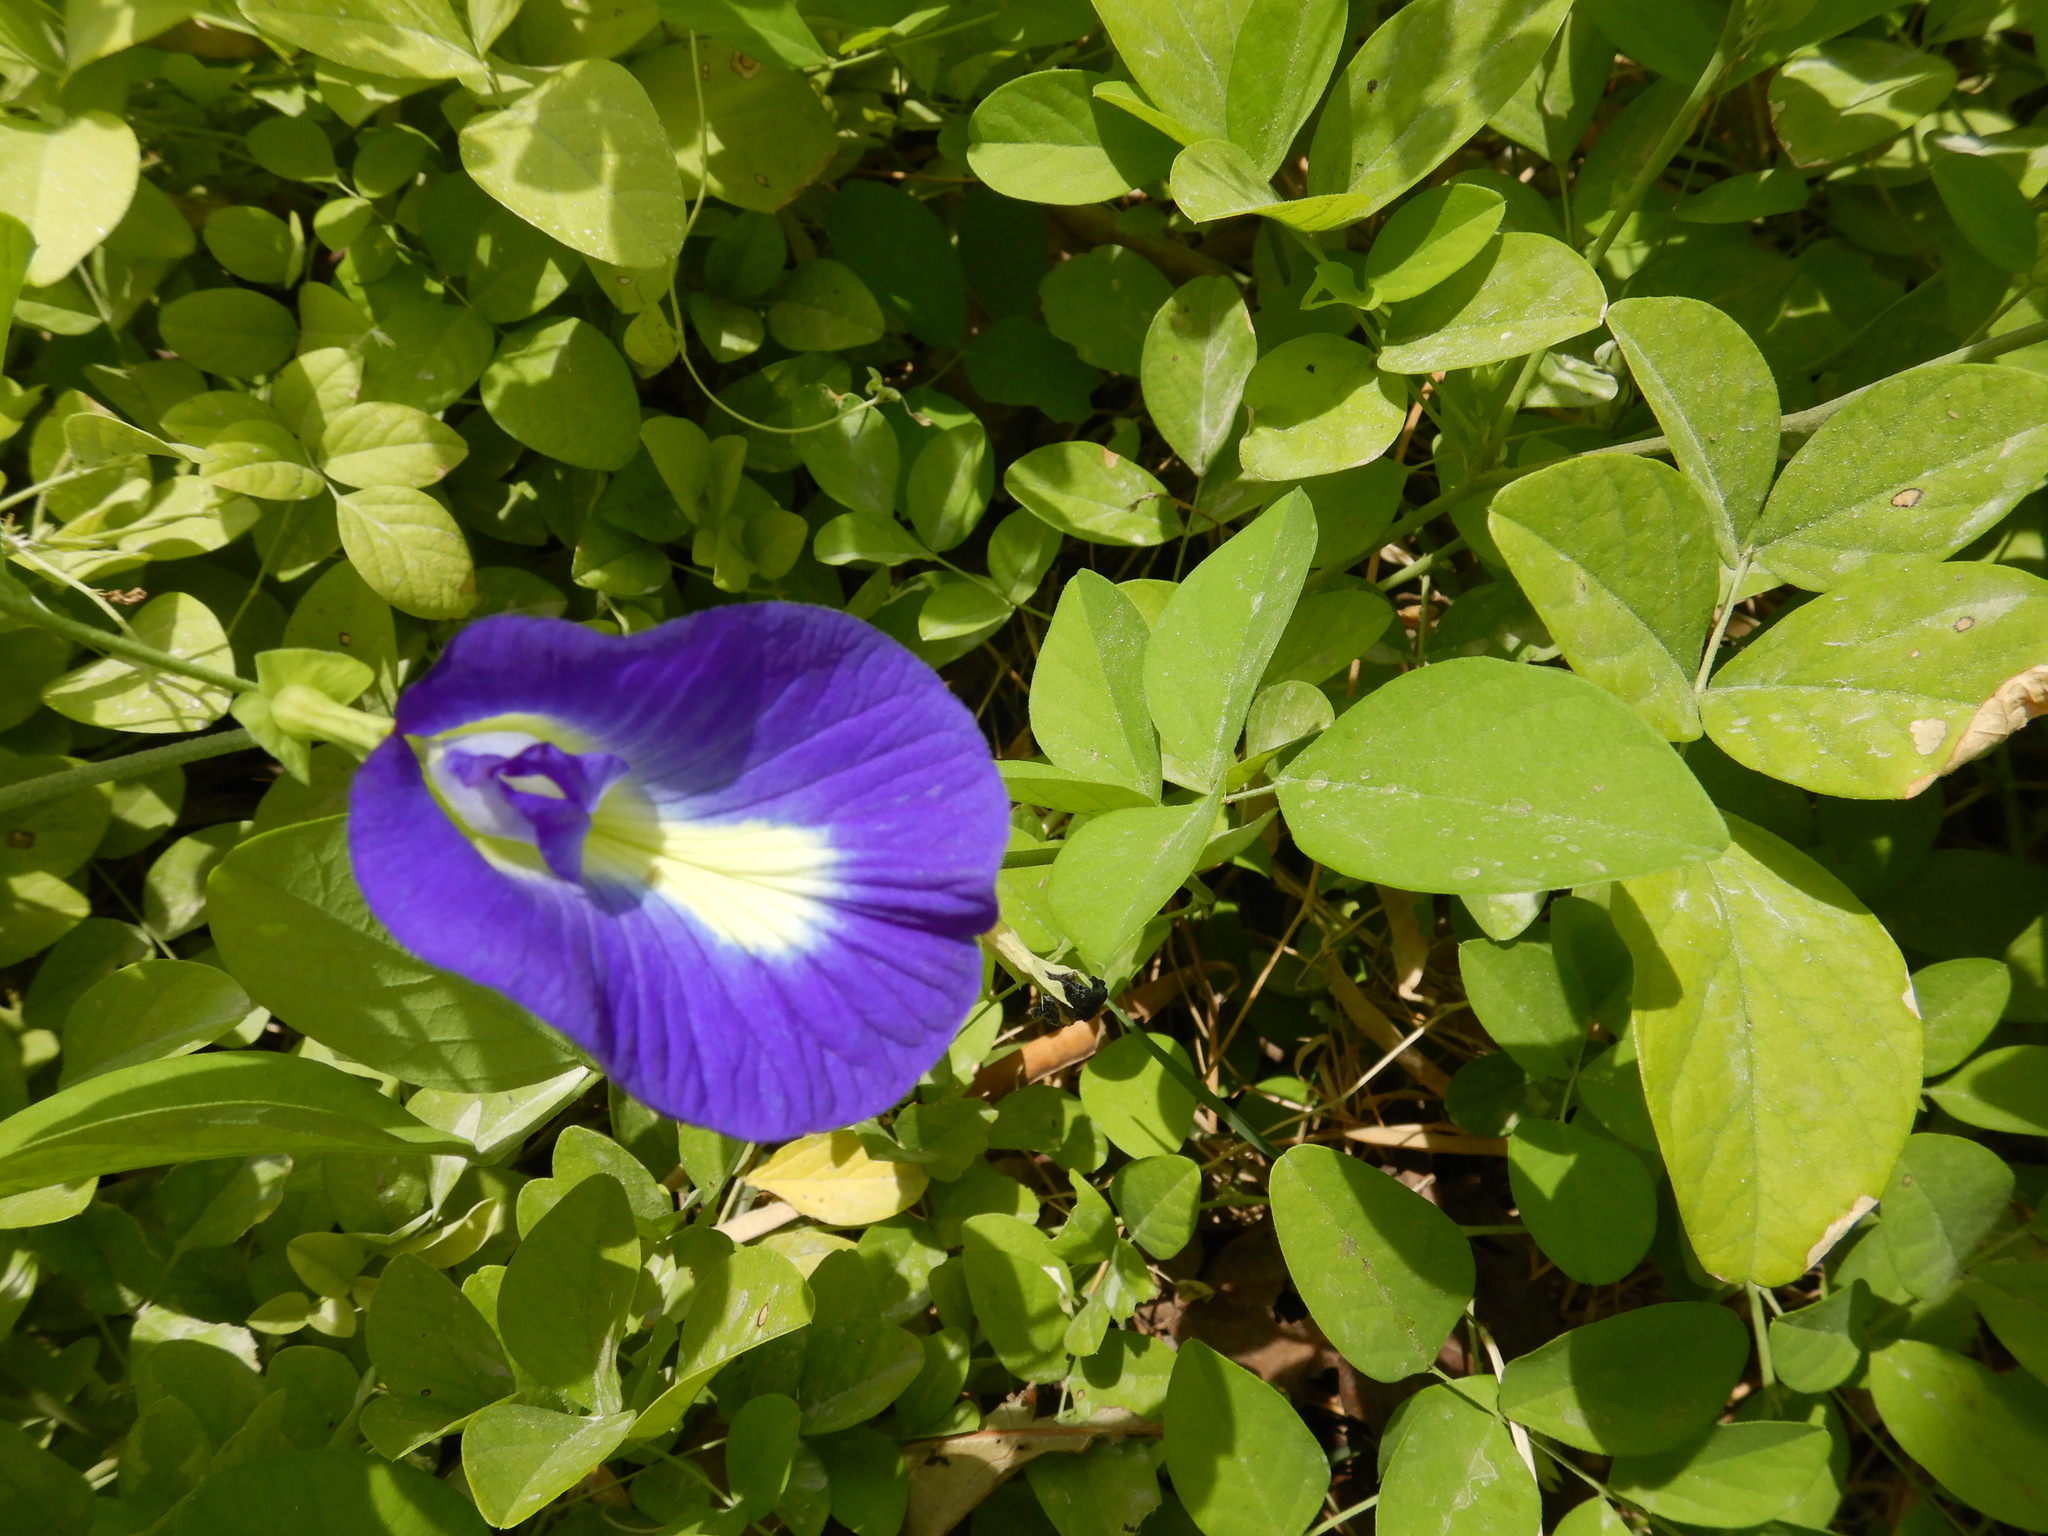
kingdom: Plantae
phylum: Tracheophyta
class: Magnoliopsida
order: Fabales
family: Fabaceae
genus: Clitoria
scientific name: Clitoria ternatea
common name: Asian pigeonwings
